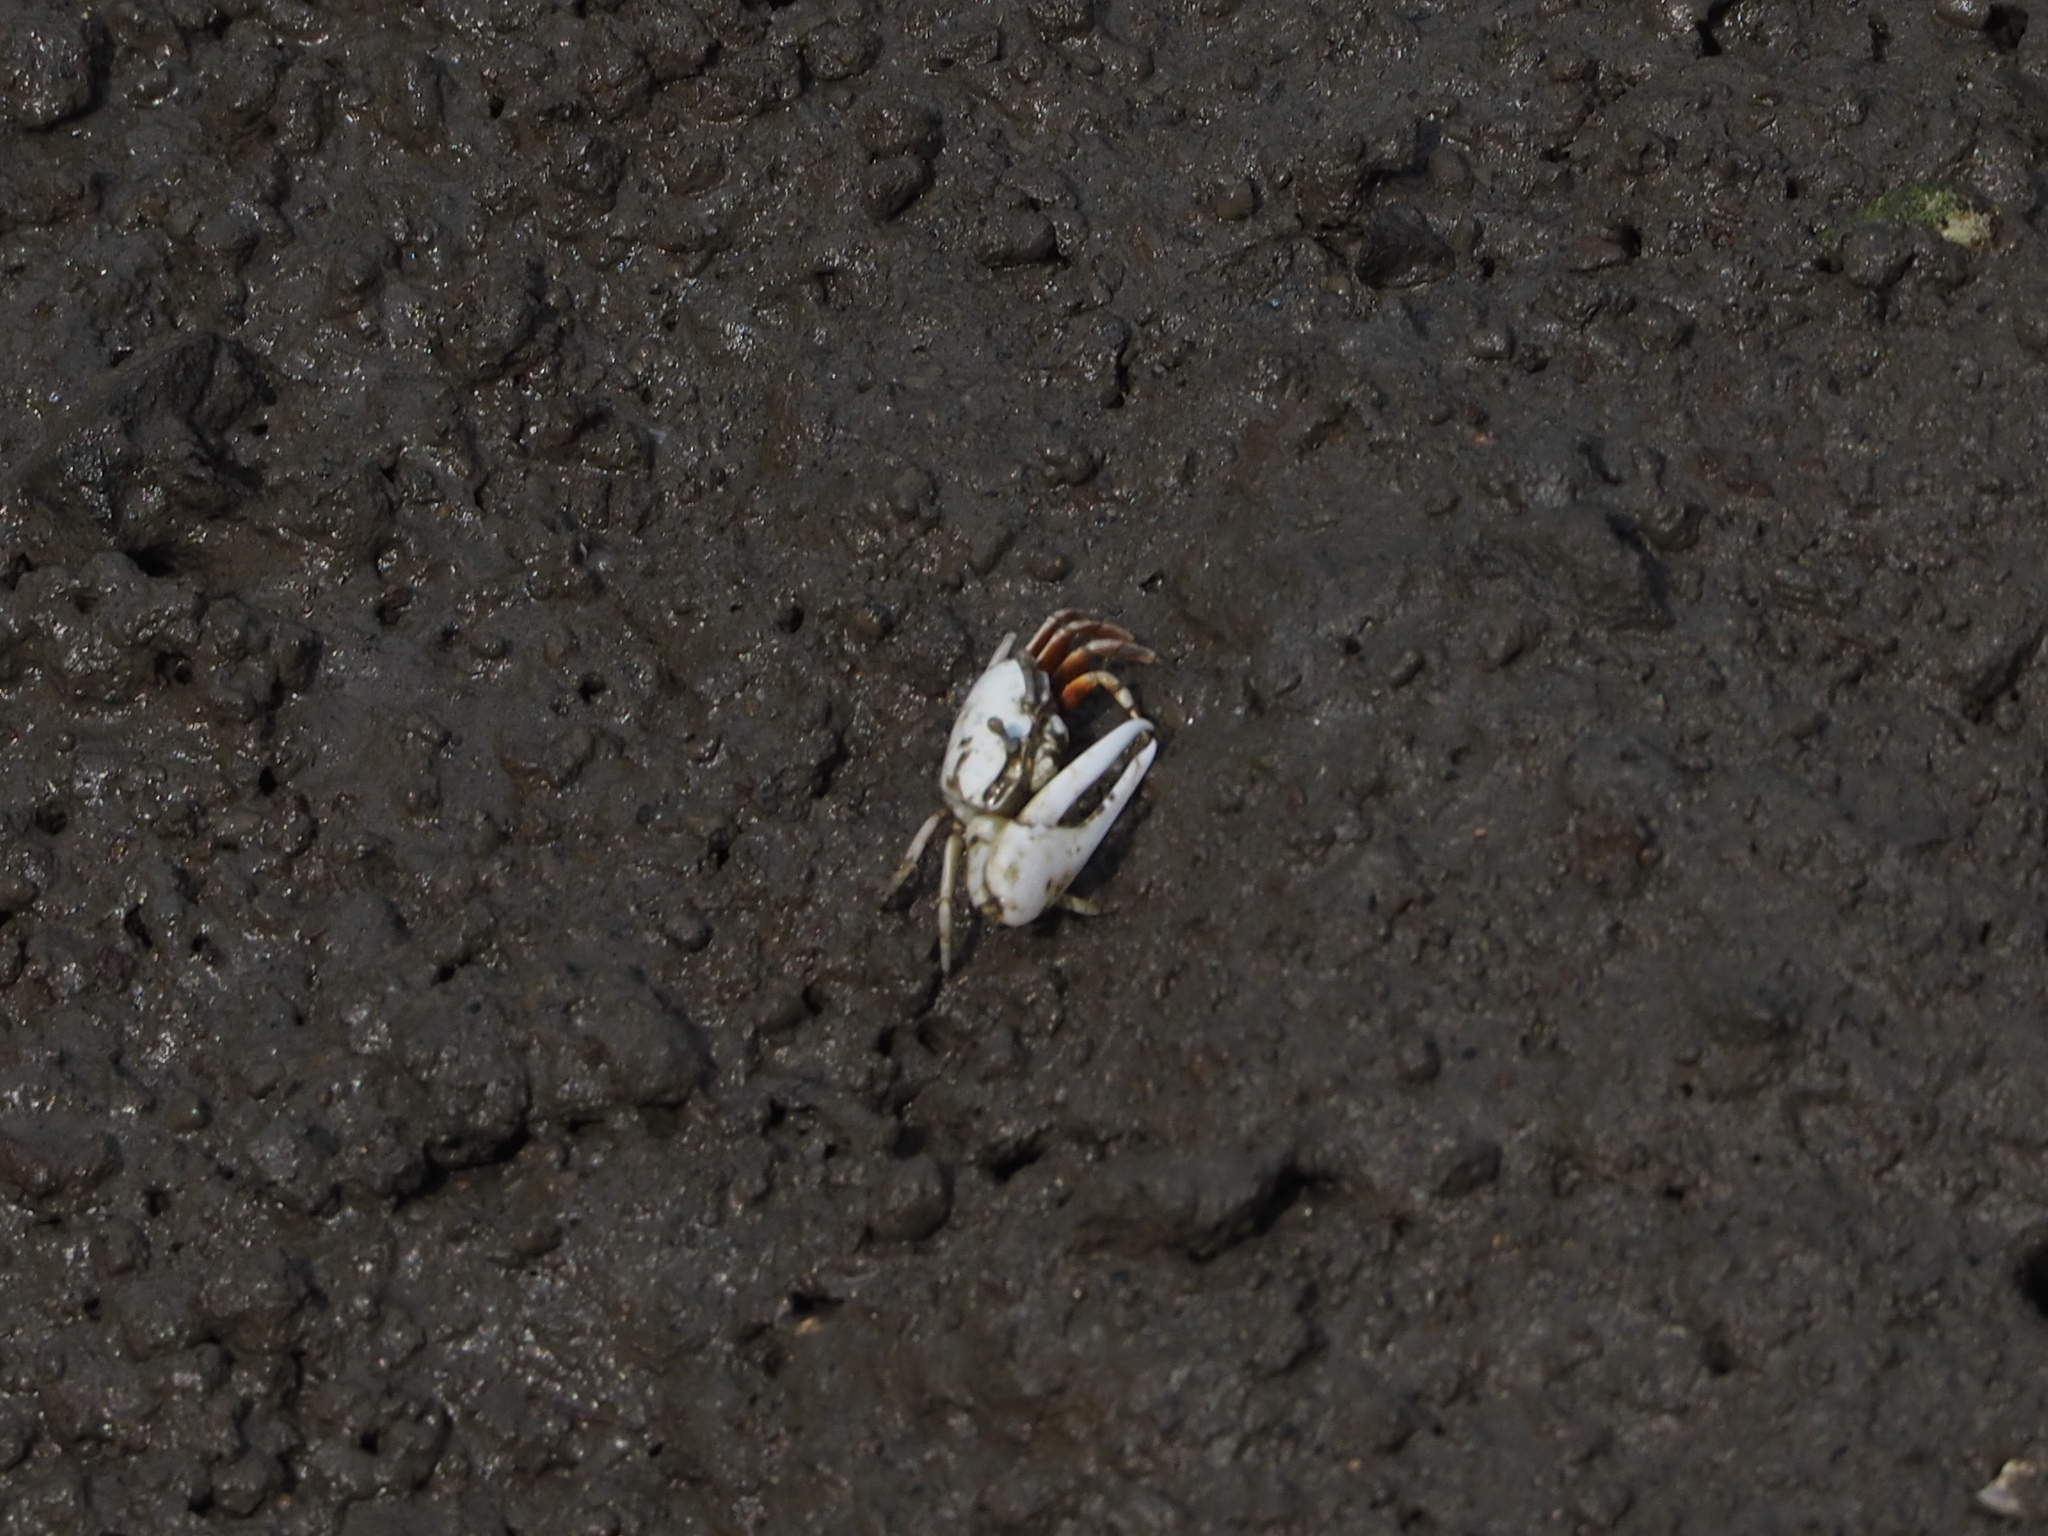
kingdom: Animalia
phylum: Arthropoda
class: Malacostraca
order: Decapoda
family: Ocypodidae
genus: Austruca
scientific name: Austruca lactea
